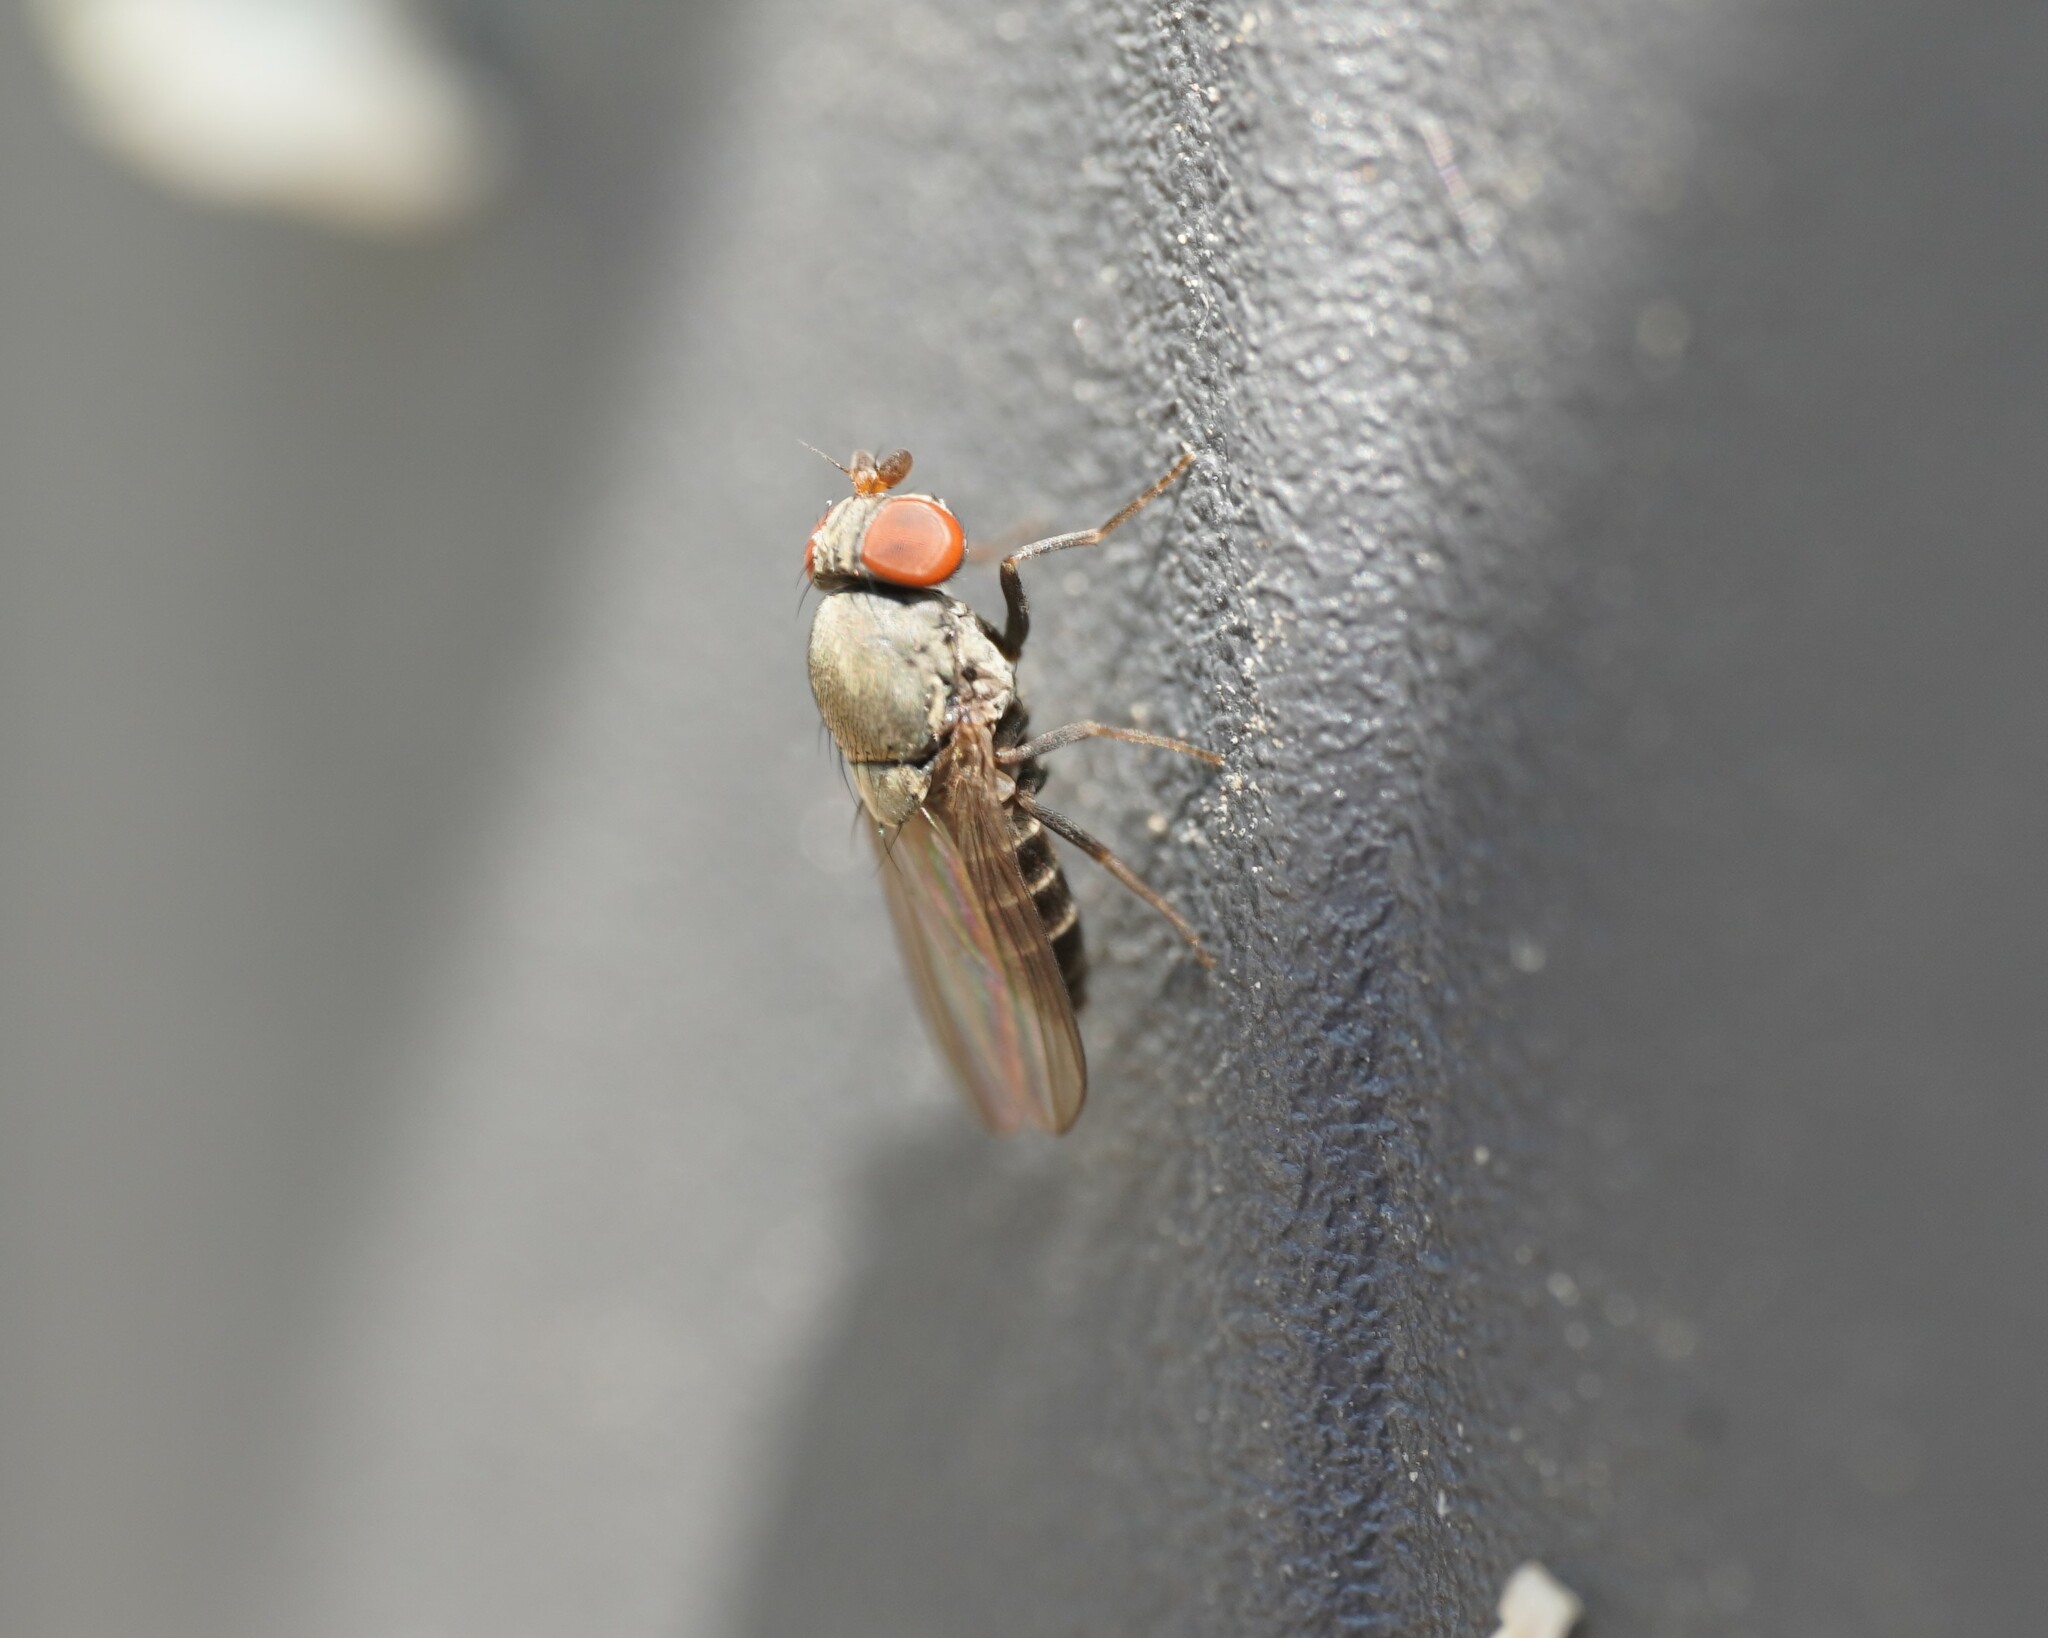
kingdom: Animalia
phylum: Arthropoda
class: Insecta
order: Diptera
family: Drosophilidae
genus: Cacoxenus
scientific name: Cacoxenus indagator
